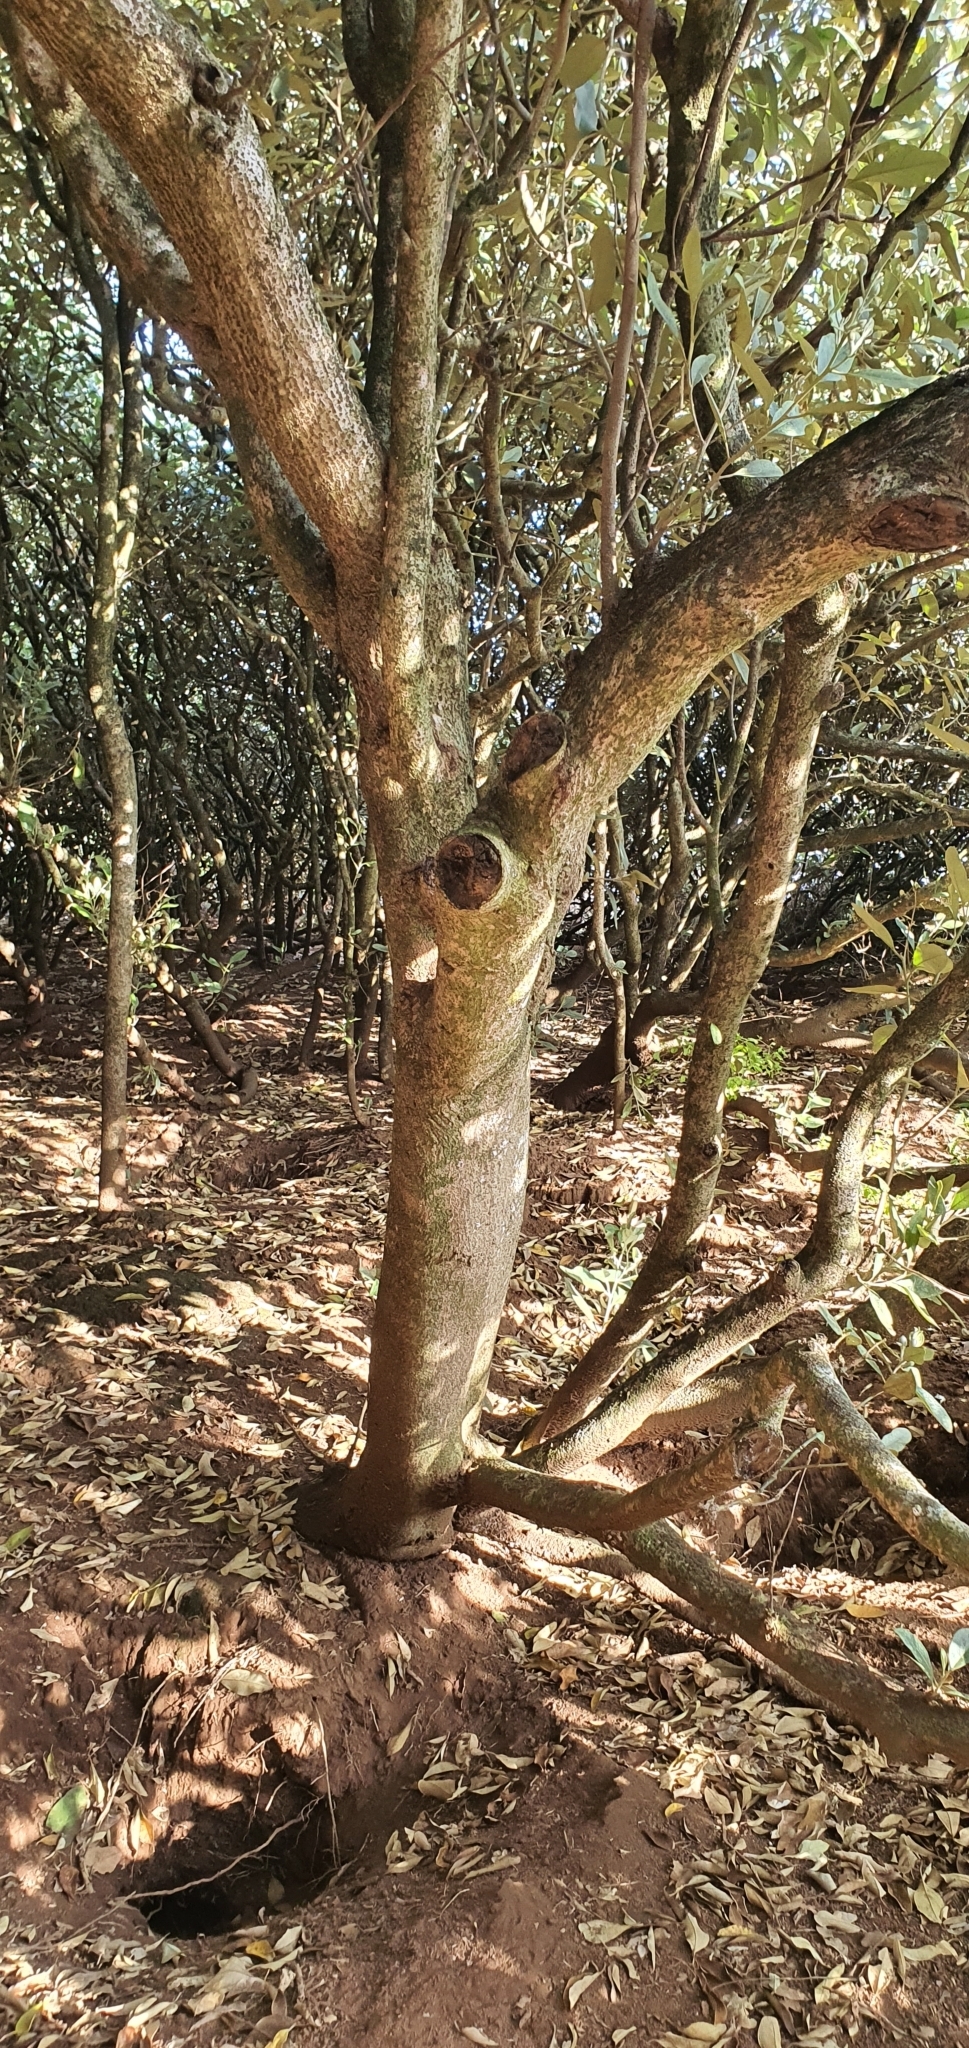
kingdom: Plantae
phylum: Tracheophyta
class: Magnoliopsida
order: Malvales
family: Malvaceae
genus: Lagunaria
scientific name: Lagunaria patersonia
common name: Cow itch tree
